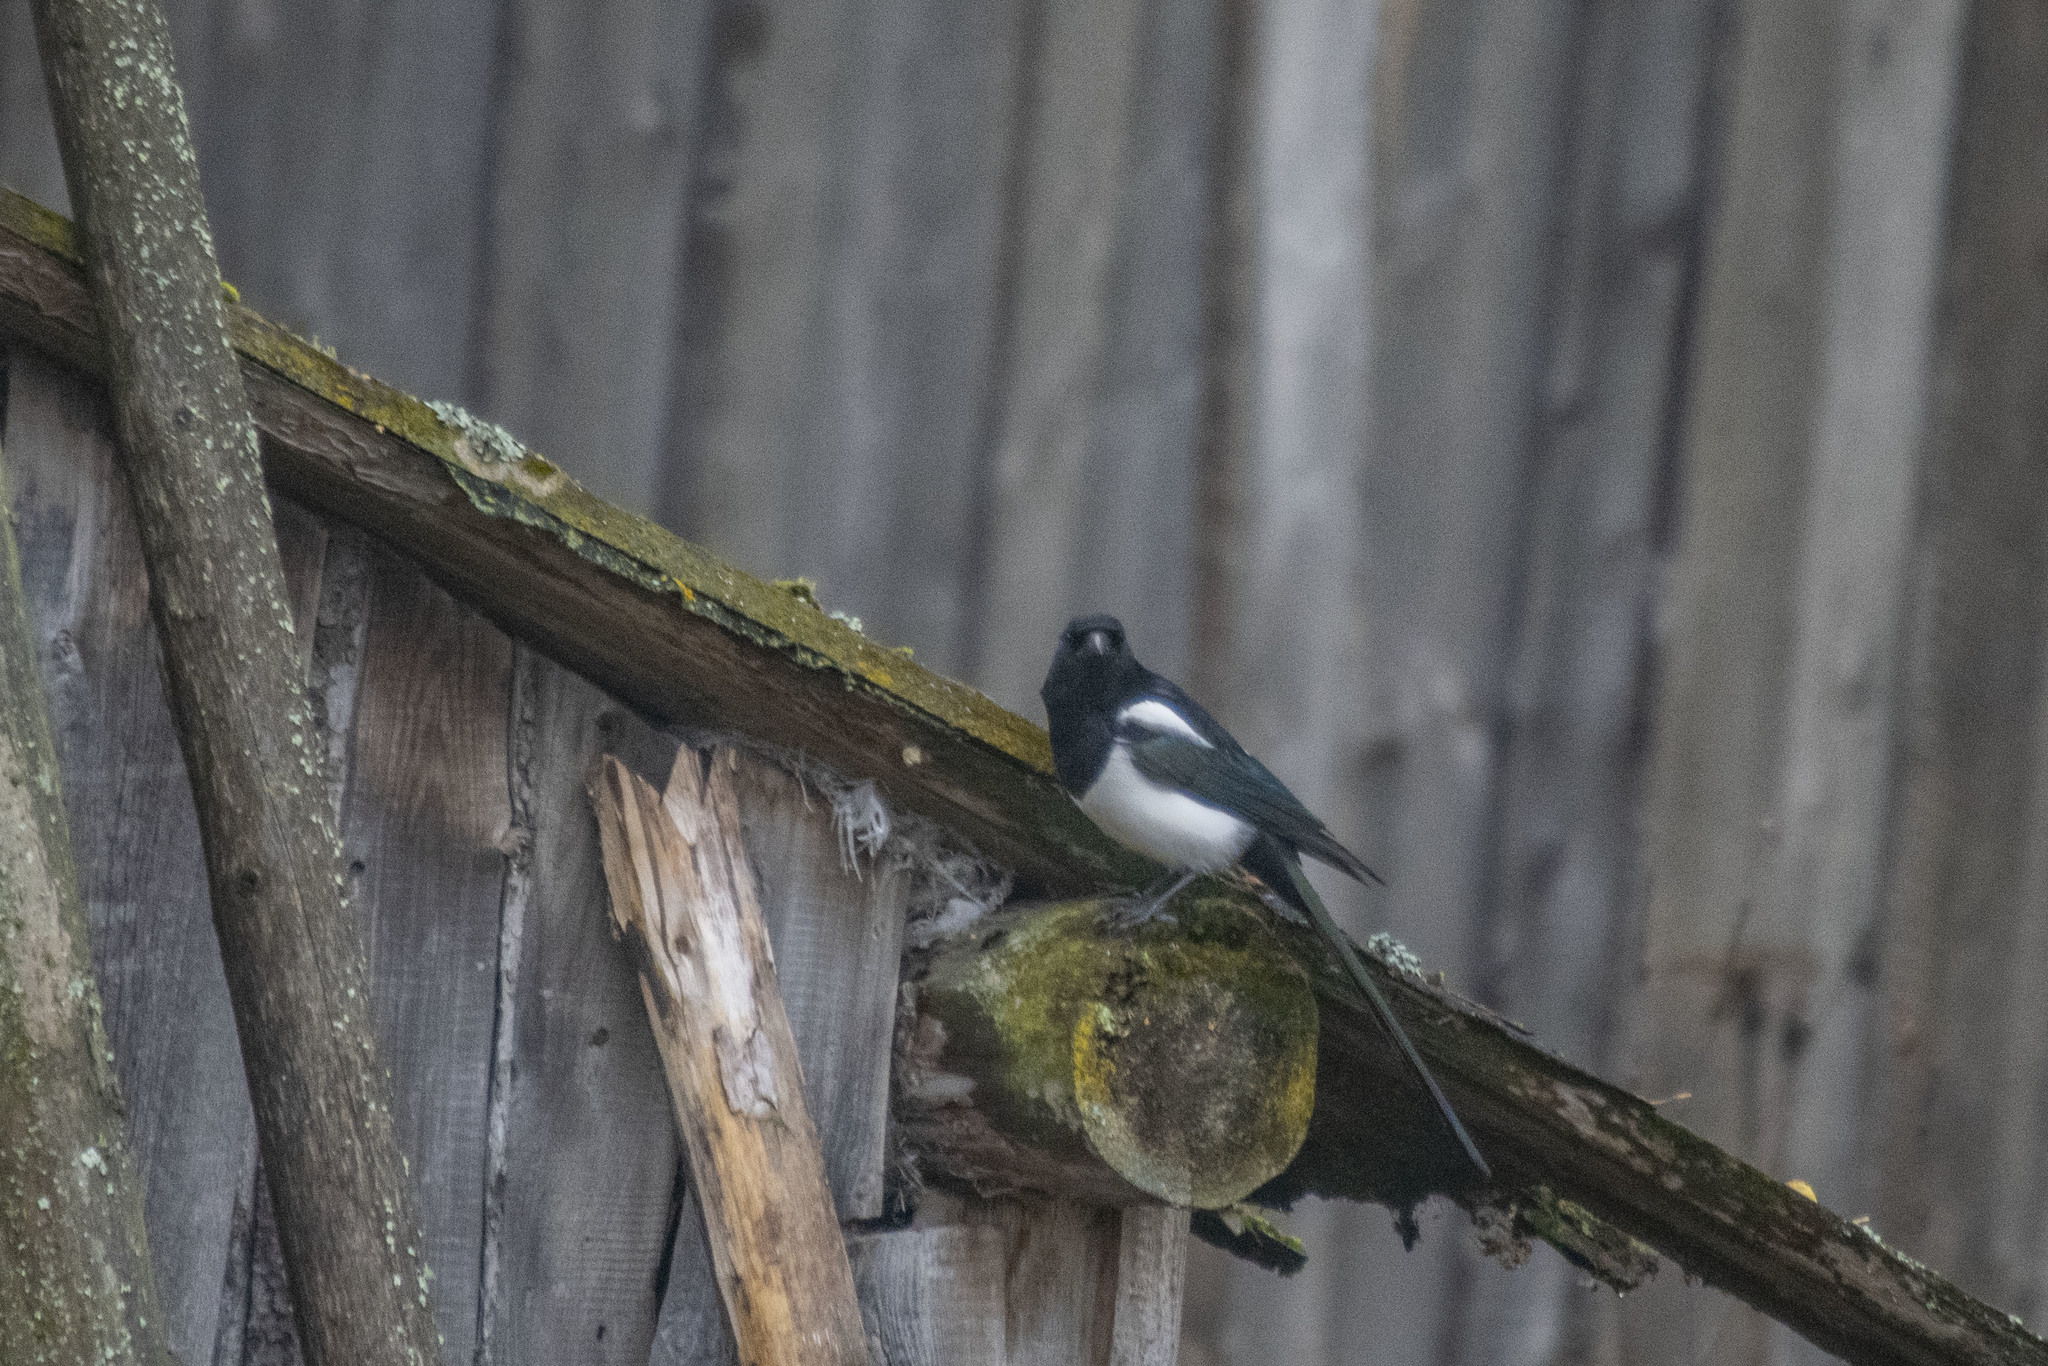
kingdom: Animalia
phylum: Chordata
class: Aves
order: Passeriformes
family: Corvidae
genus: Pica
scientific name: Pica pica
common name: Eurasian magpie
